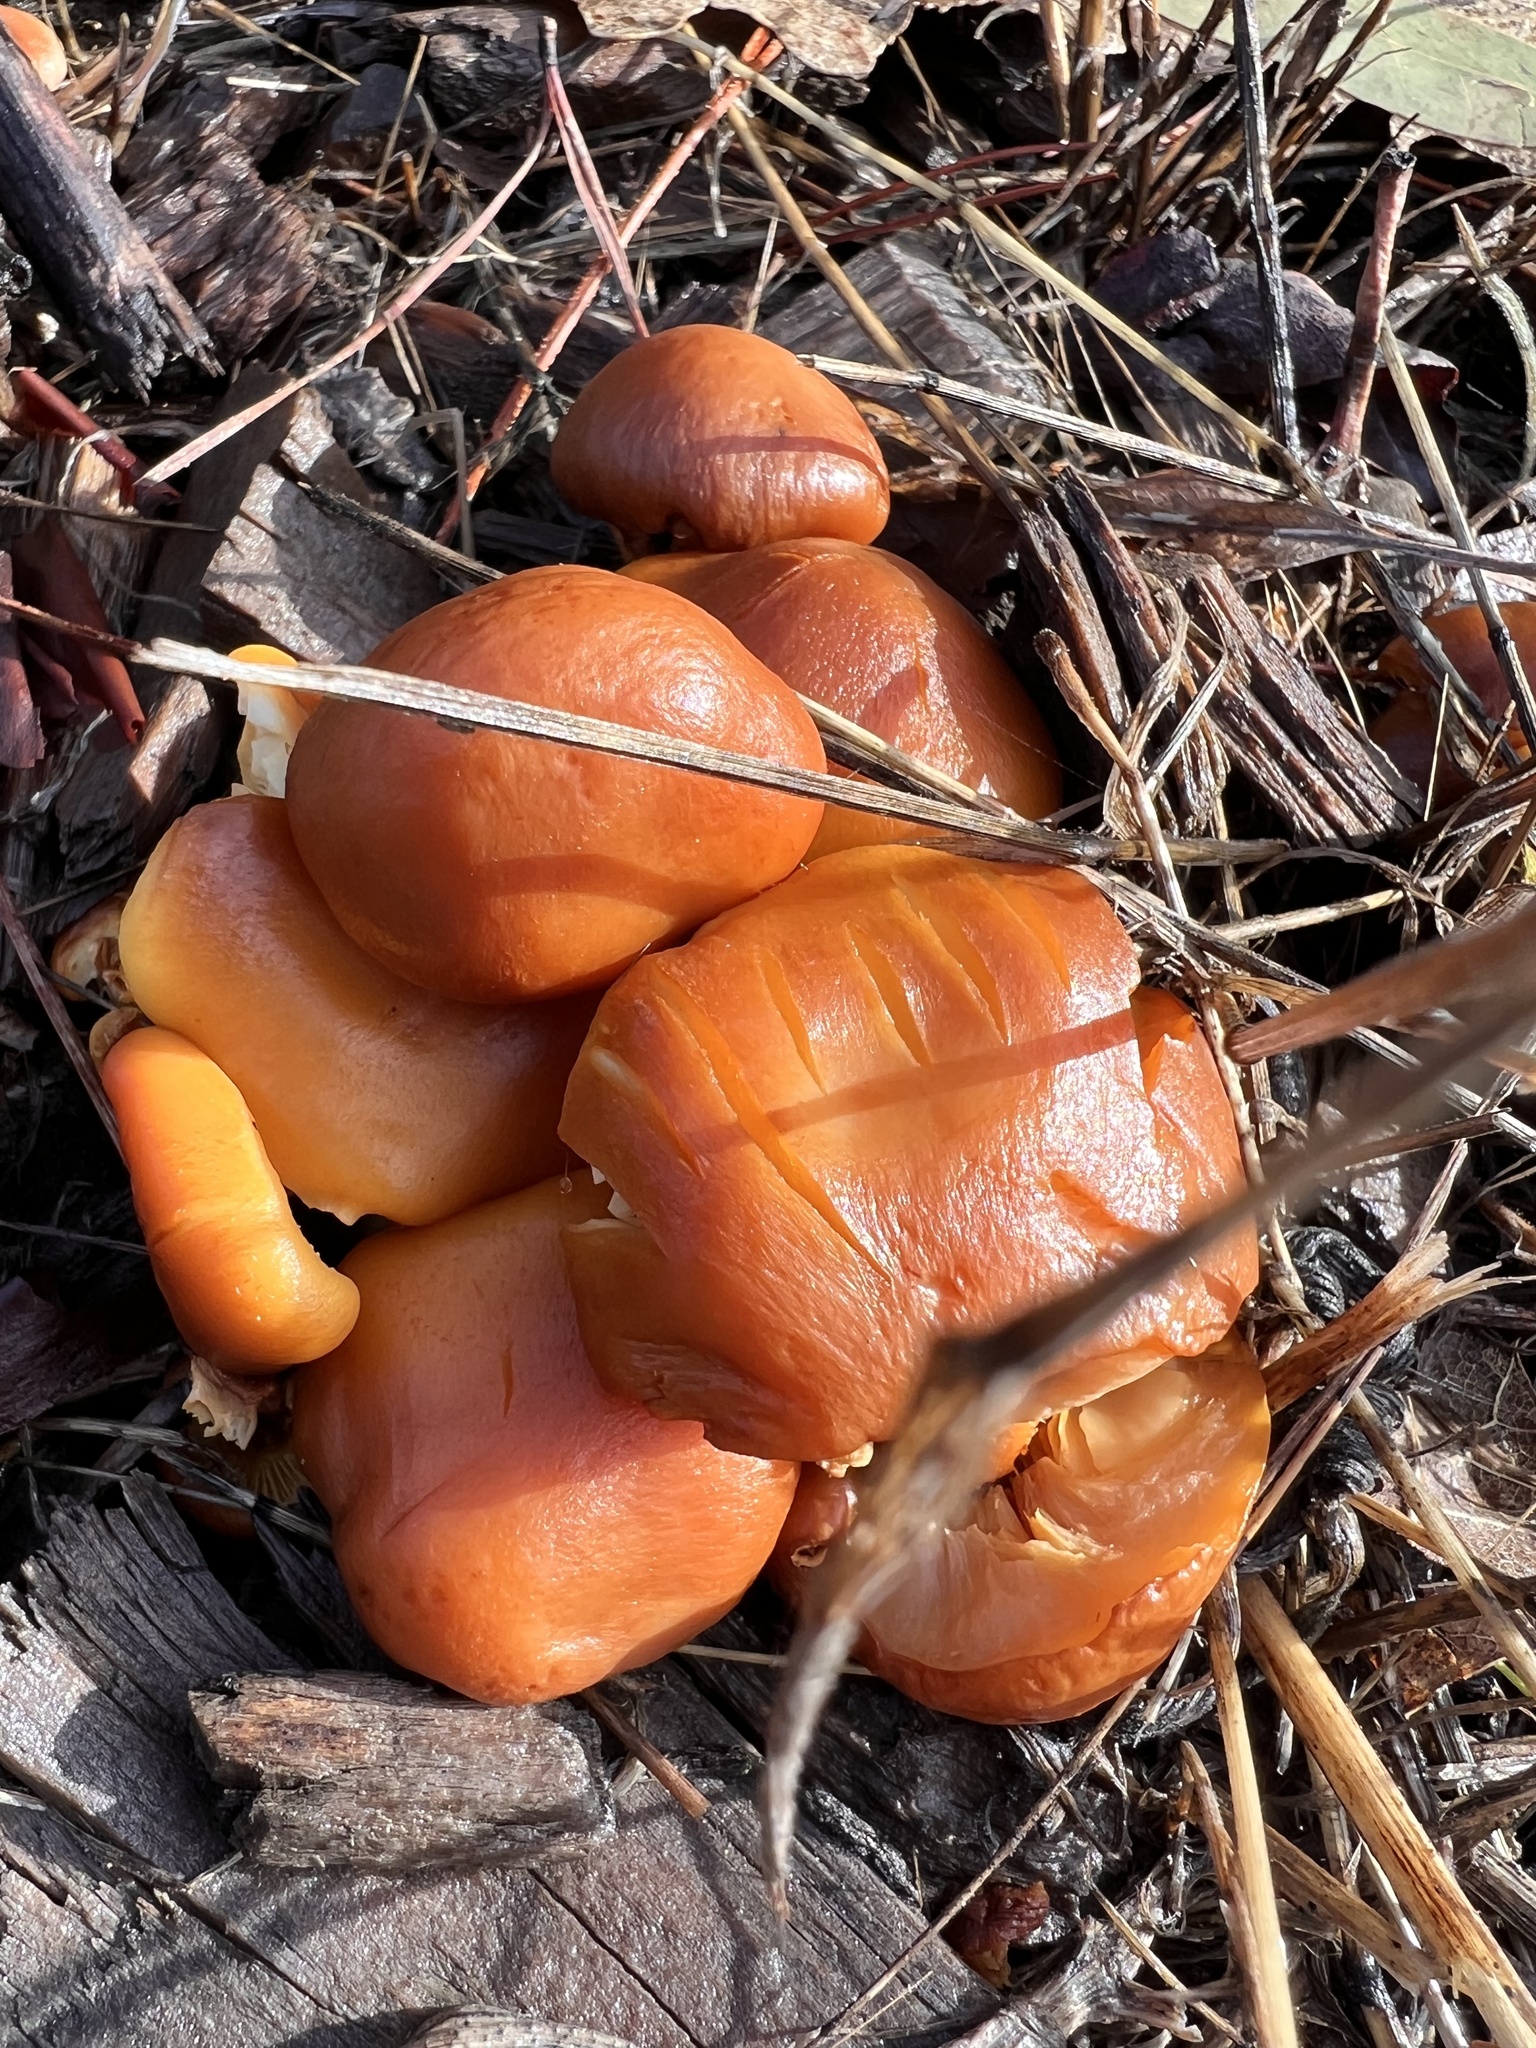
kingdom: Fungi
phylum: Basidiomycota
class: Agaricomycetes
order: Agaricales
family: Hymenogastraceae
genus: Gymnopilus
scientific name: Gymnopilus aurantiophyllus
